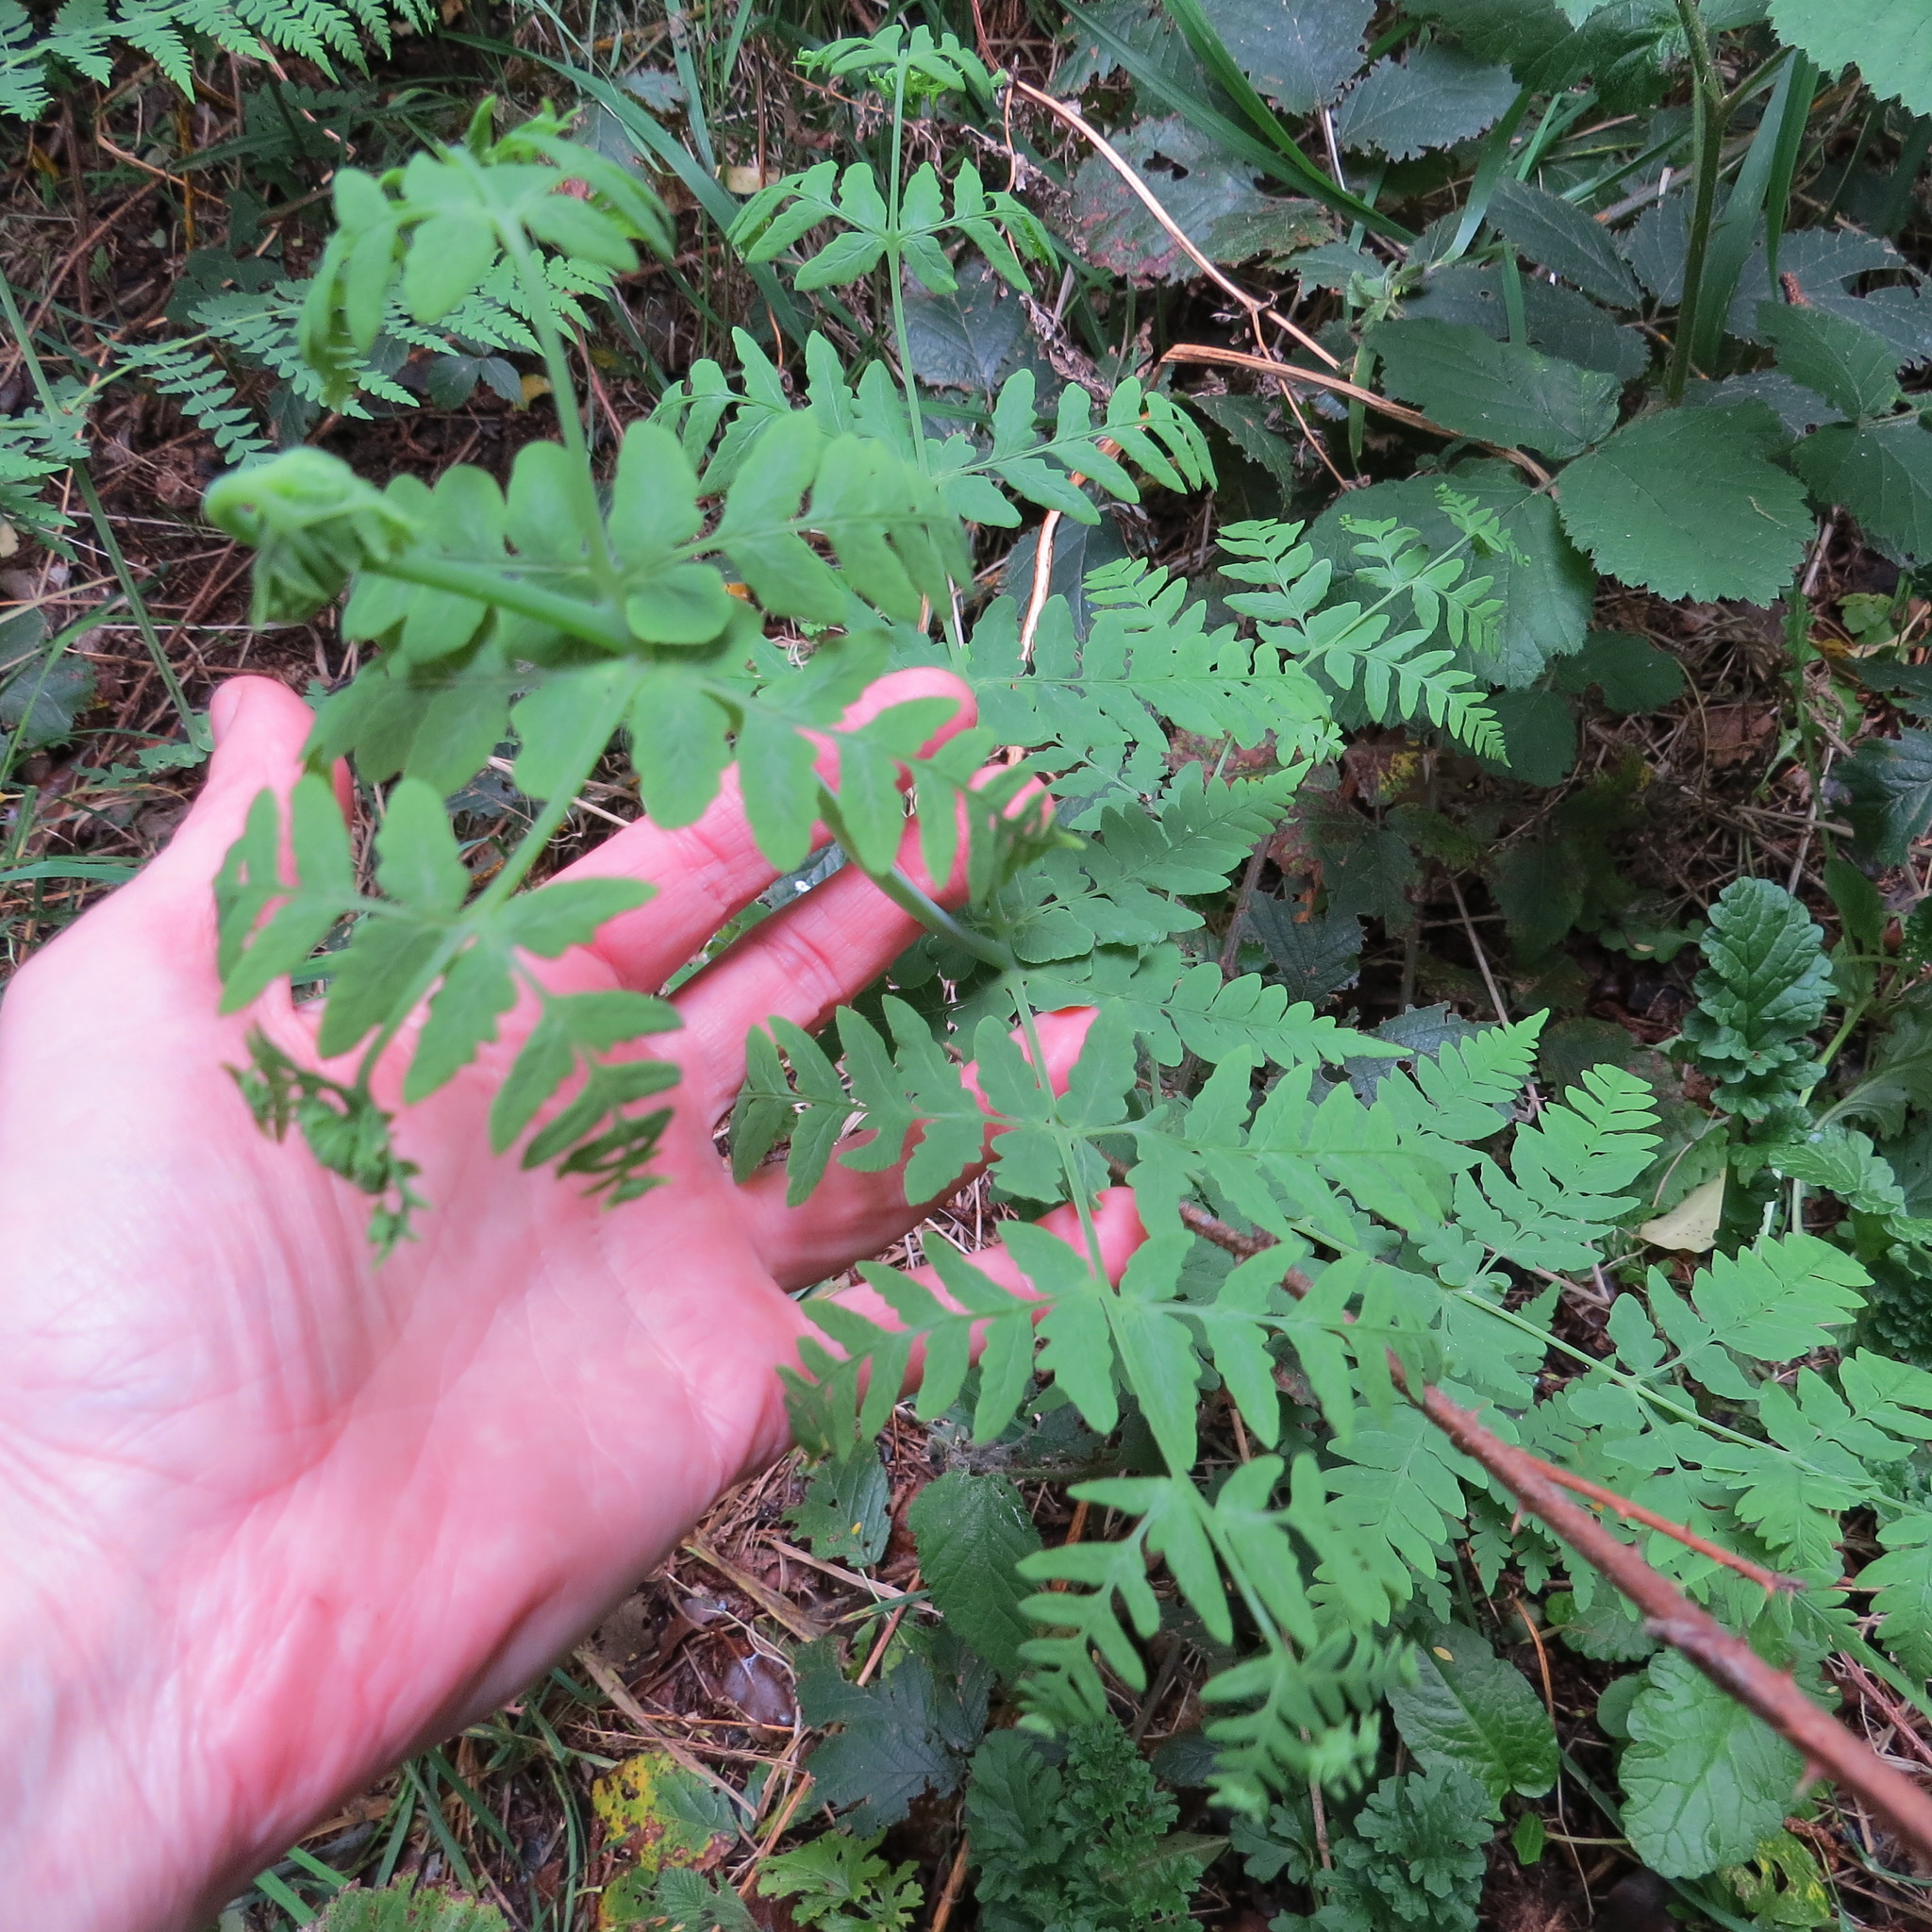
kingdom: Plantae
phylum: Tracheophyta
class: Polypodiopsida
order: Polypodiales
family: Dennstaedtiaceae
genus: Histiopteris
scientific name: Histiopteris incisa
